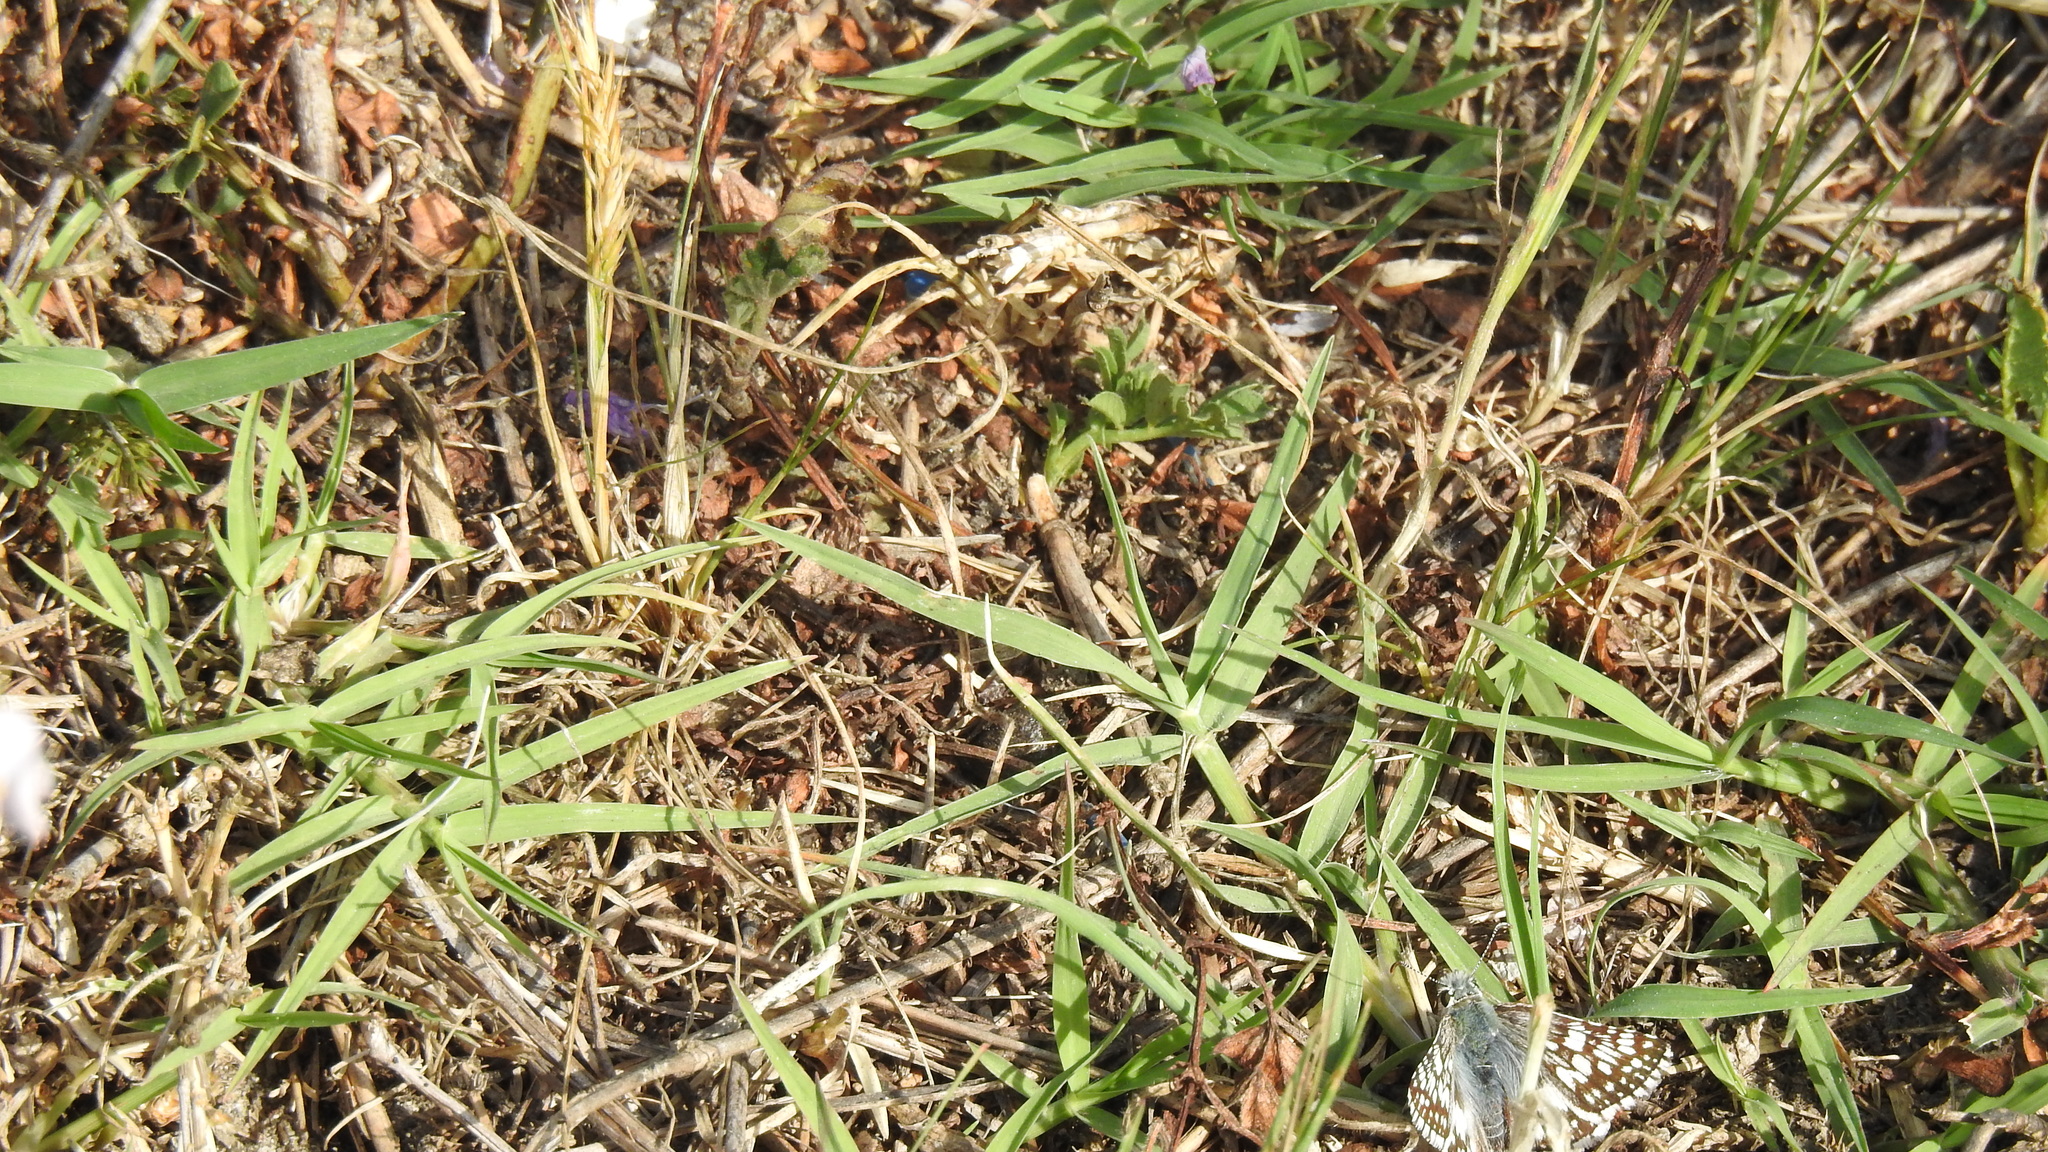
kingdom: Animalia
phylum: Arthropoda
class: Insecta
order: Lepidoptera
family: Hesperiidae
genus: Burnsius
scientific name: Burnsius communis
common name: Common checkered-skipper
